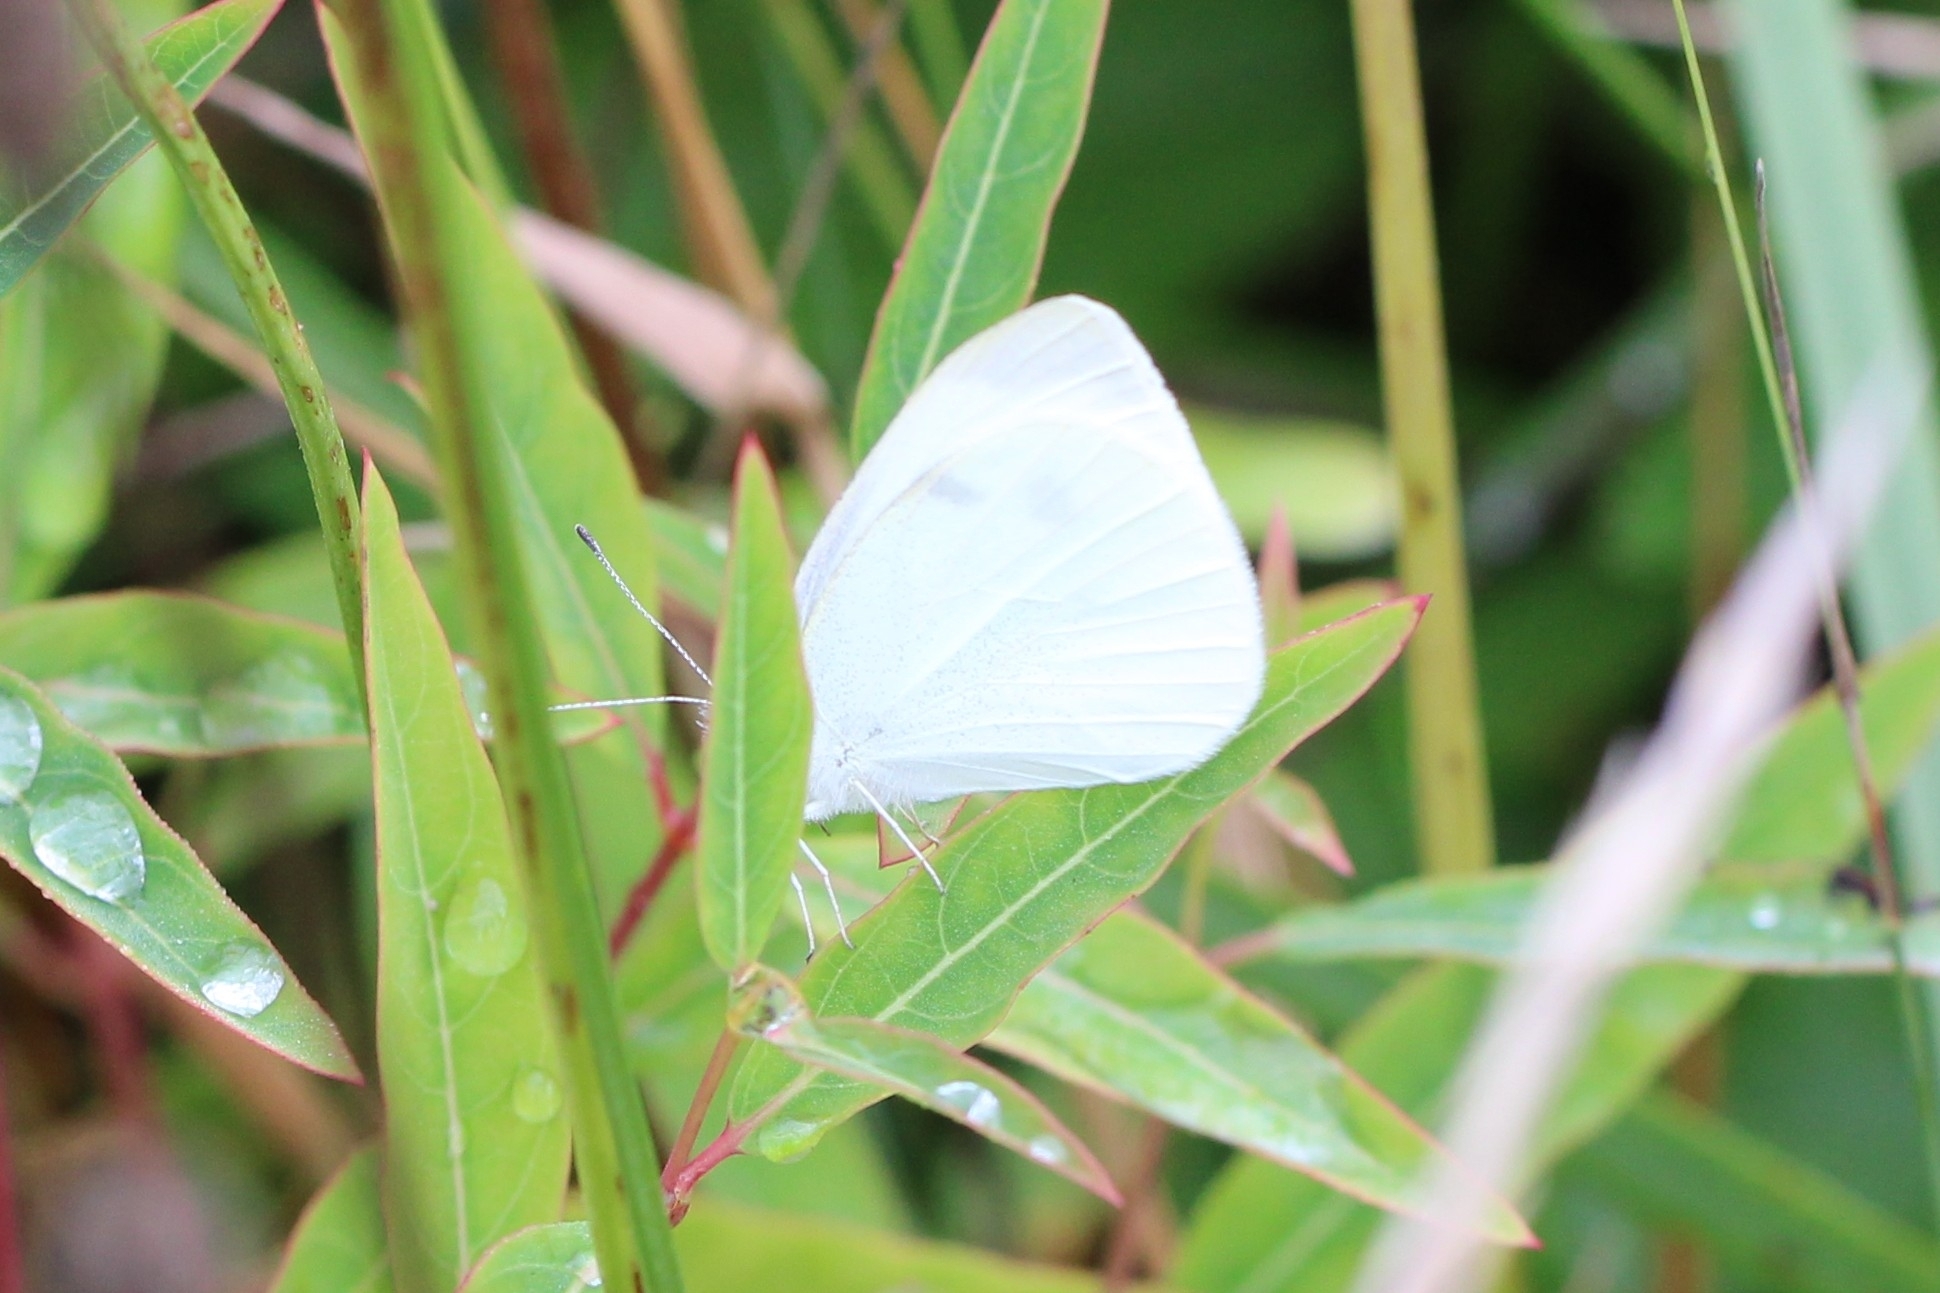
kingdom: Animalia
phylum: Arthropoda
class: Insecta
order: Lepidoptera
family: Pieridae
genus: Pieris
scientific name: Pieris rapae
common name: Small white
